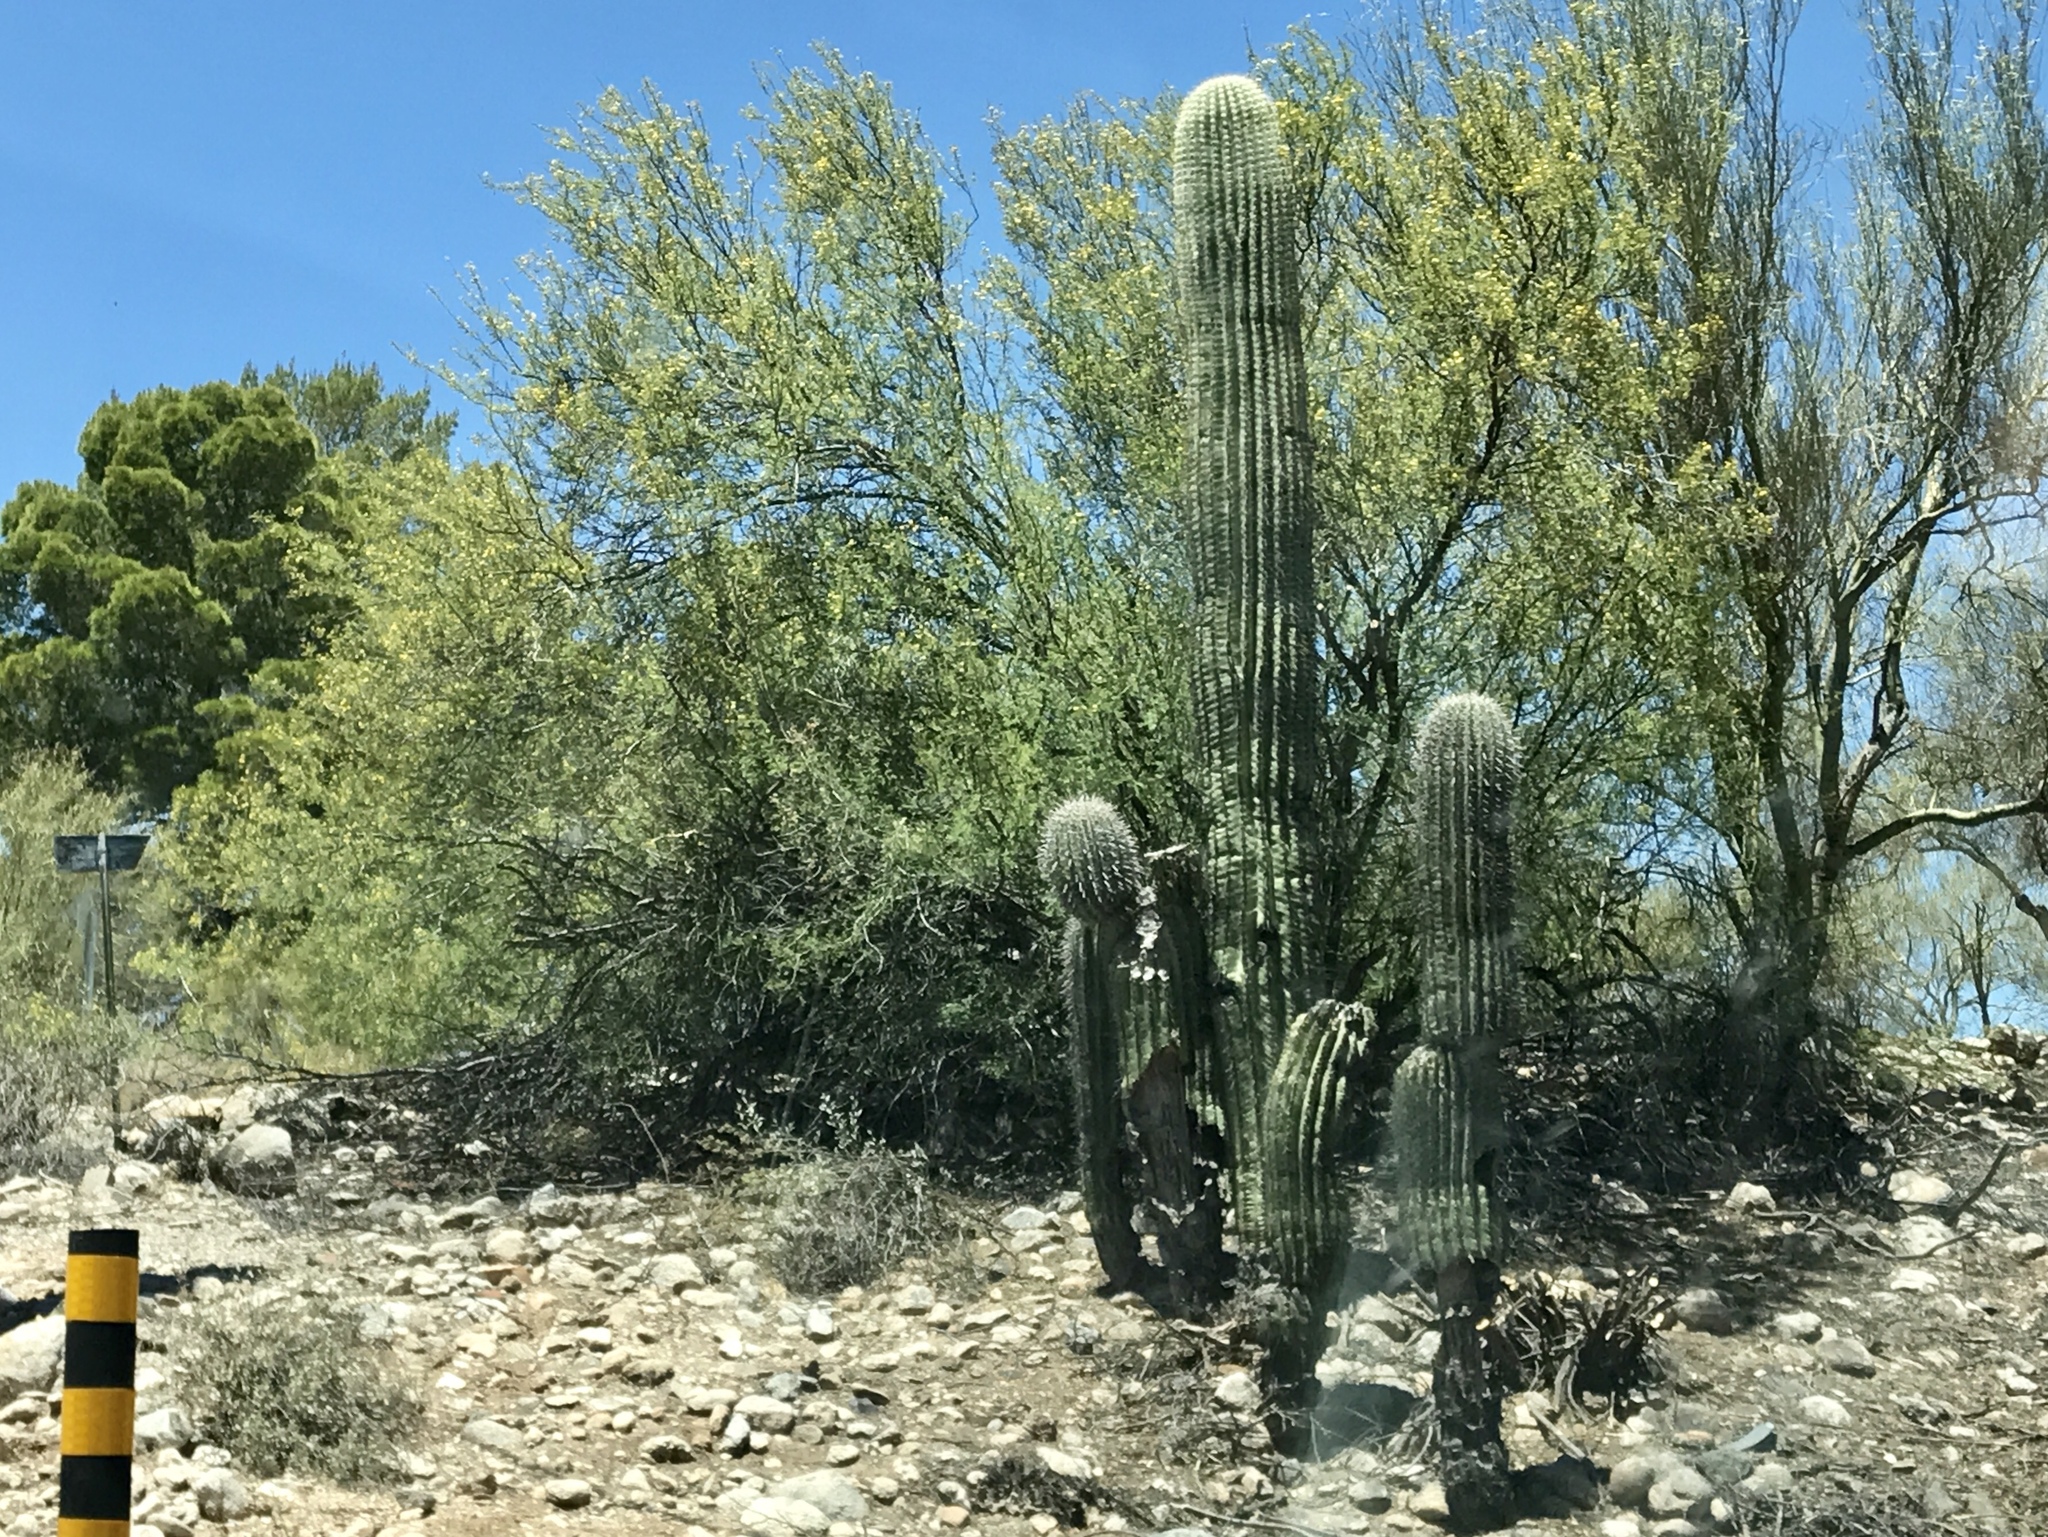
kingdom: Plantae
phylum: Tracheophyta
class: Magnoliopsida
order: Caryophyllales
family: Cactaceae
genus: Carnegiea
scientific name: Carnegiea gigantea
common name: Saguaro
